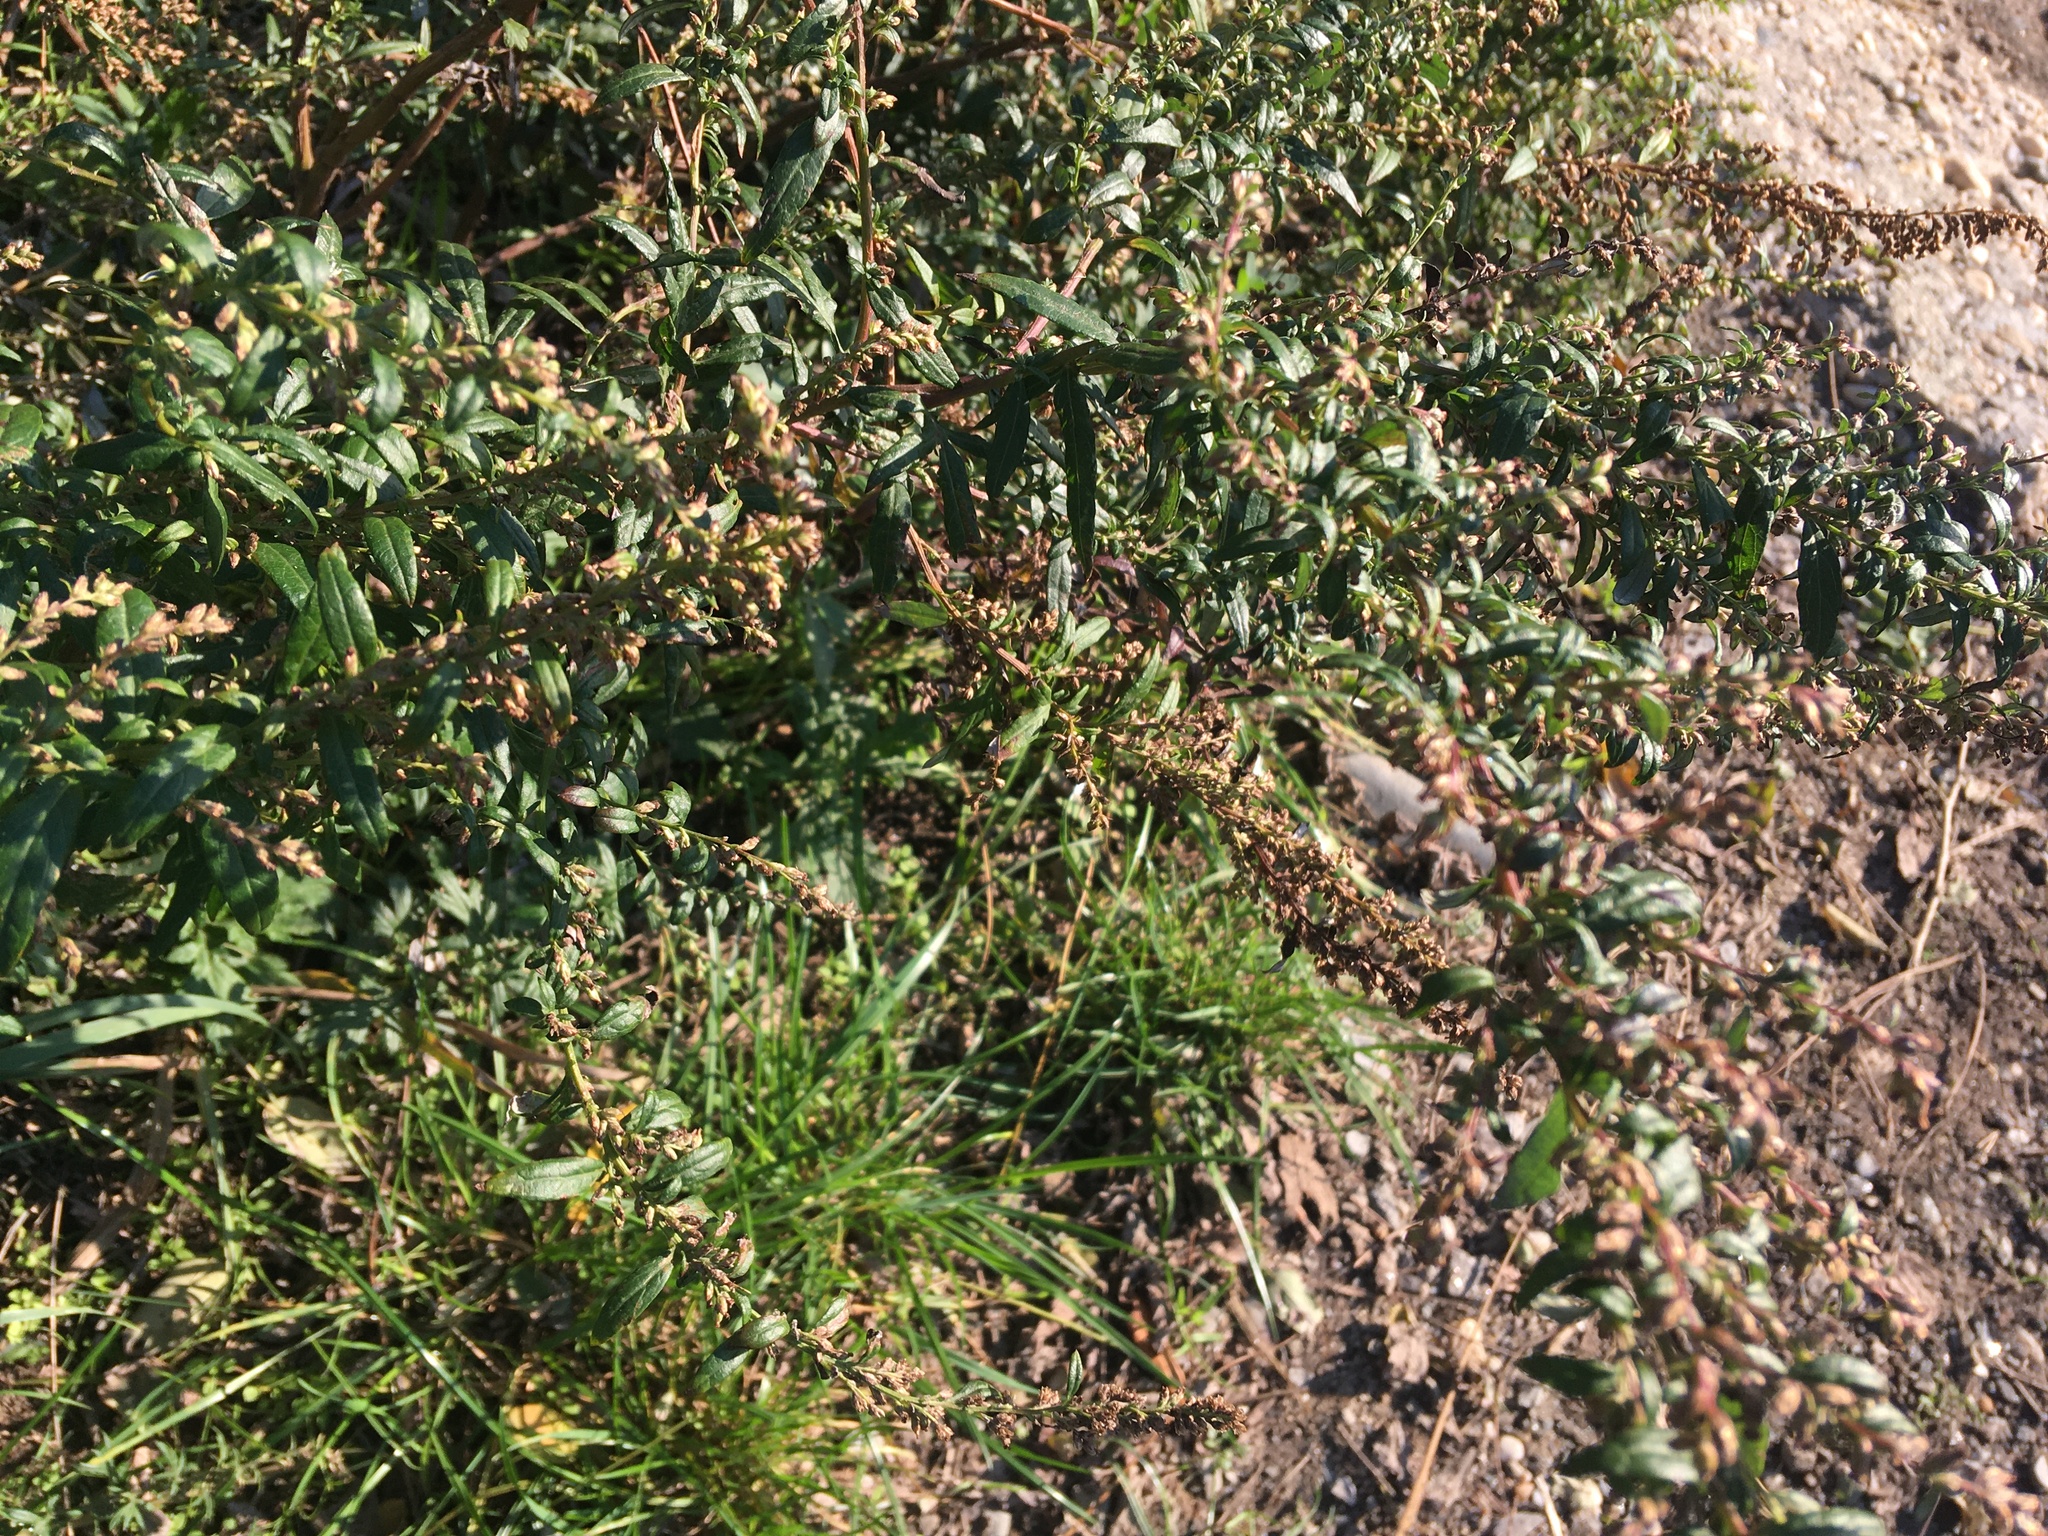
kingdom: Plantae
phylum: Tracheophyta
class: Magnoliopsida
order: Asterales
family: Asteraceae
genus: Artemisia
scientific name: Artemisia vulgaris
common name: Mugwort
